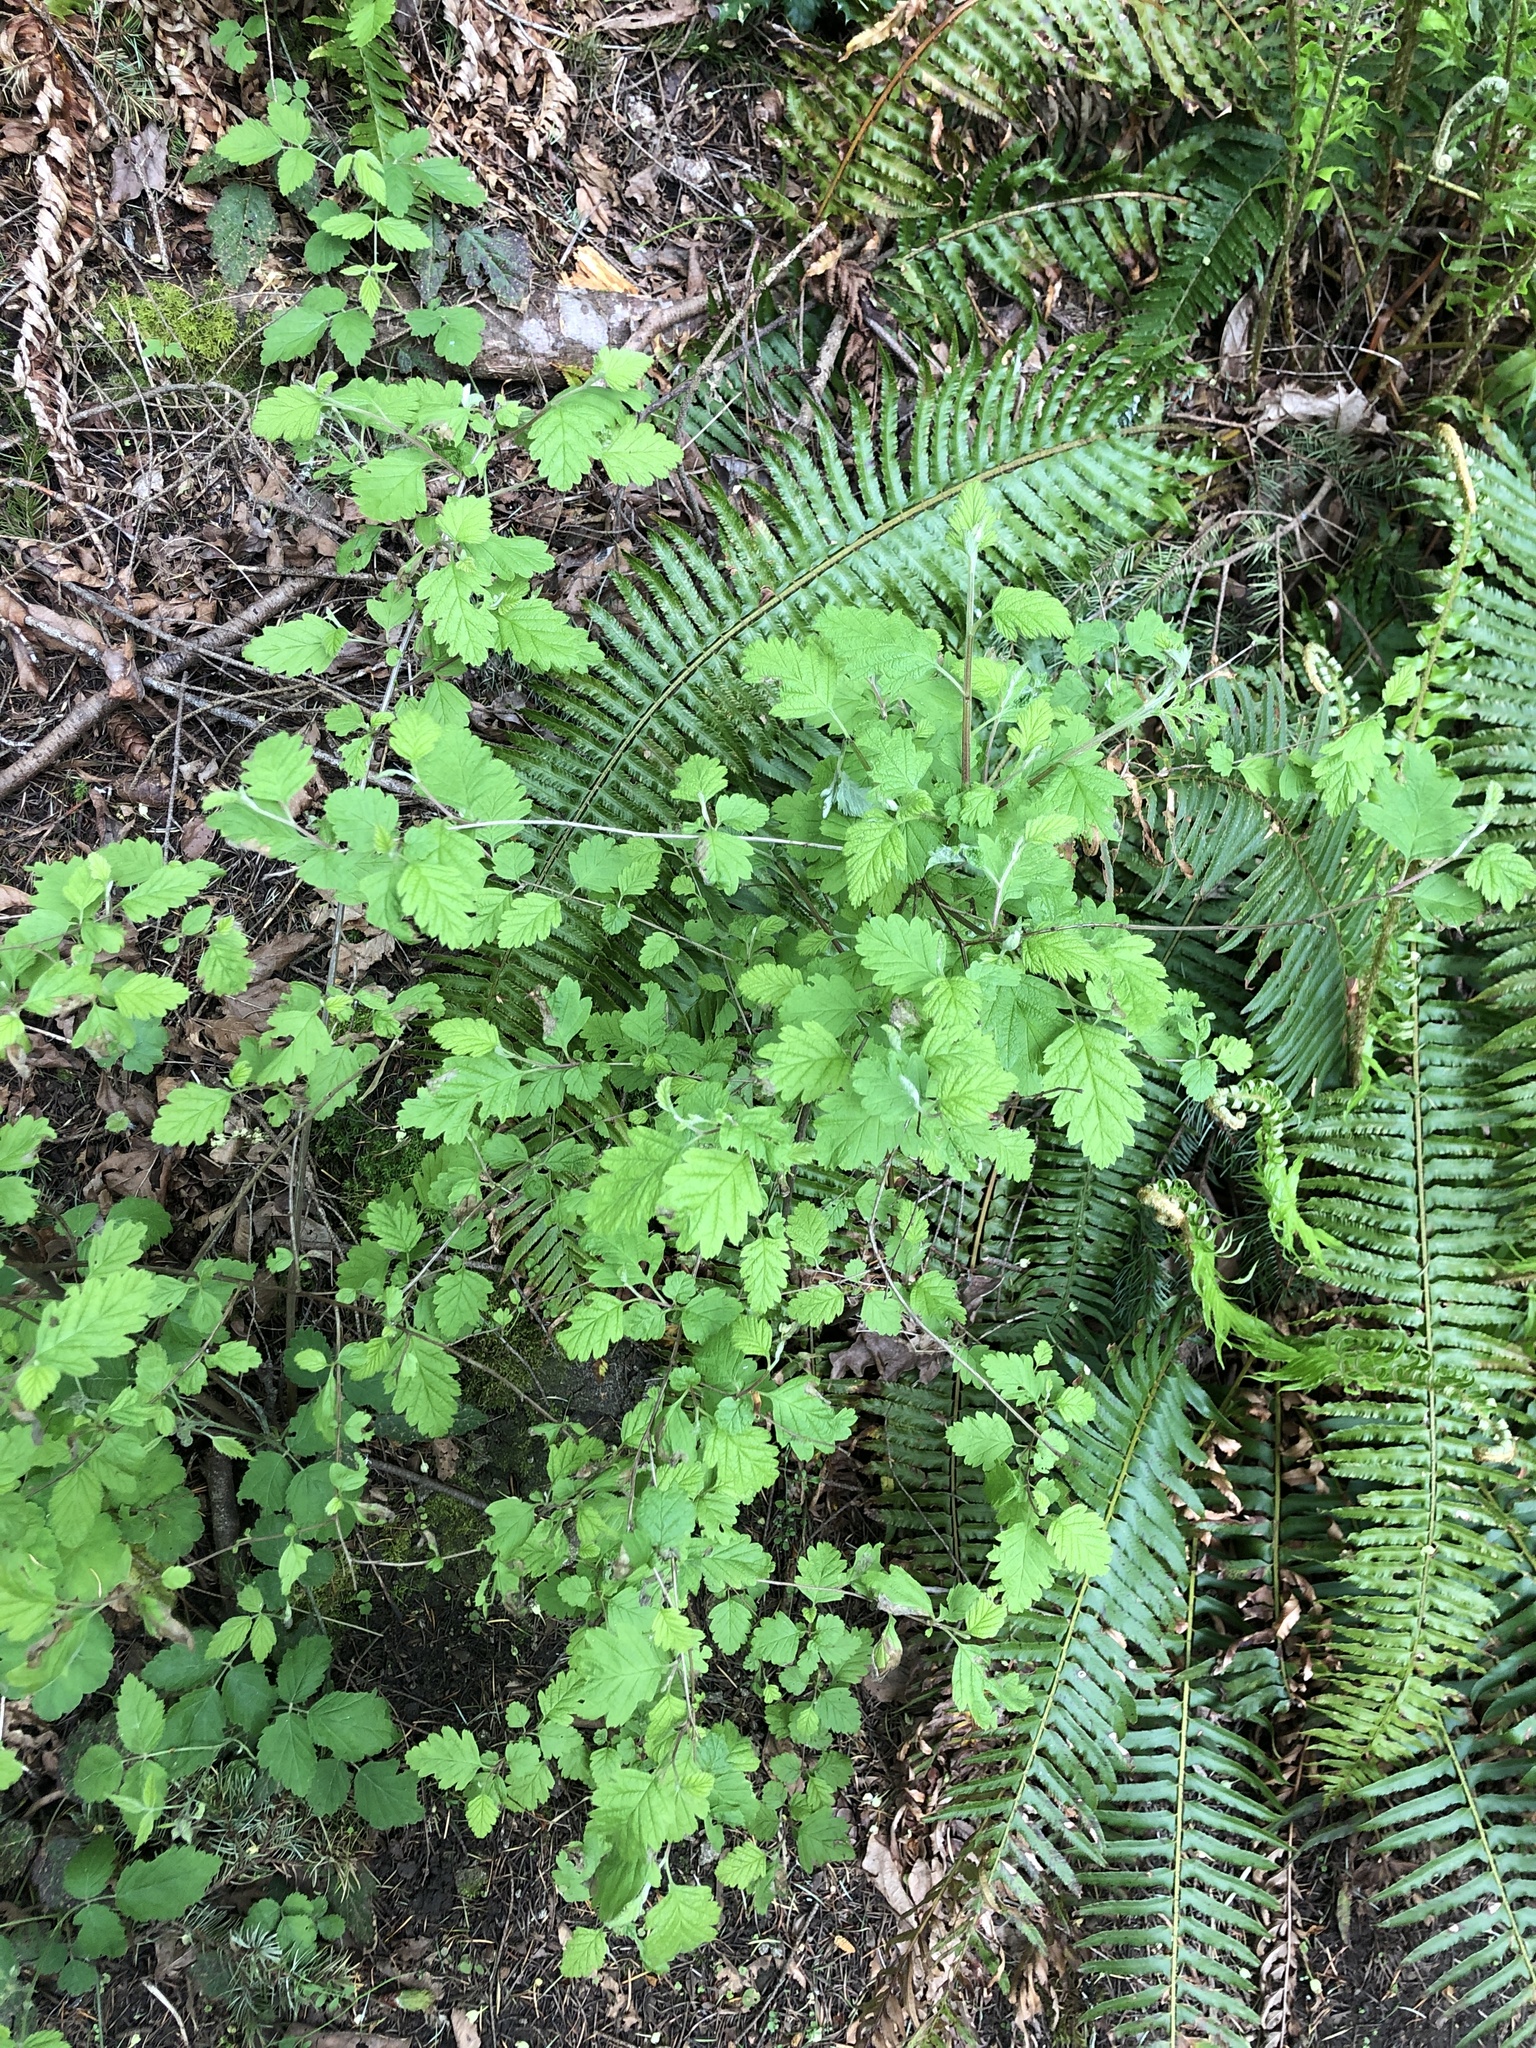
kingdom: Plantae
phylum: Tracheophyta
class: Magnoliopsida
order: Rosales
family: Rosaceae
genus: Holodiscus
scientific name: Holodiscus discolor
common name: Oceanspray
